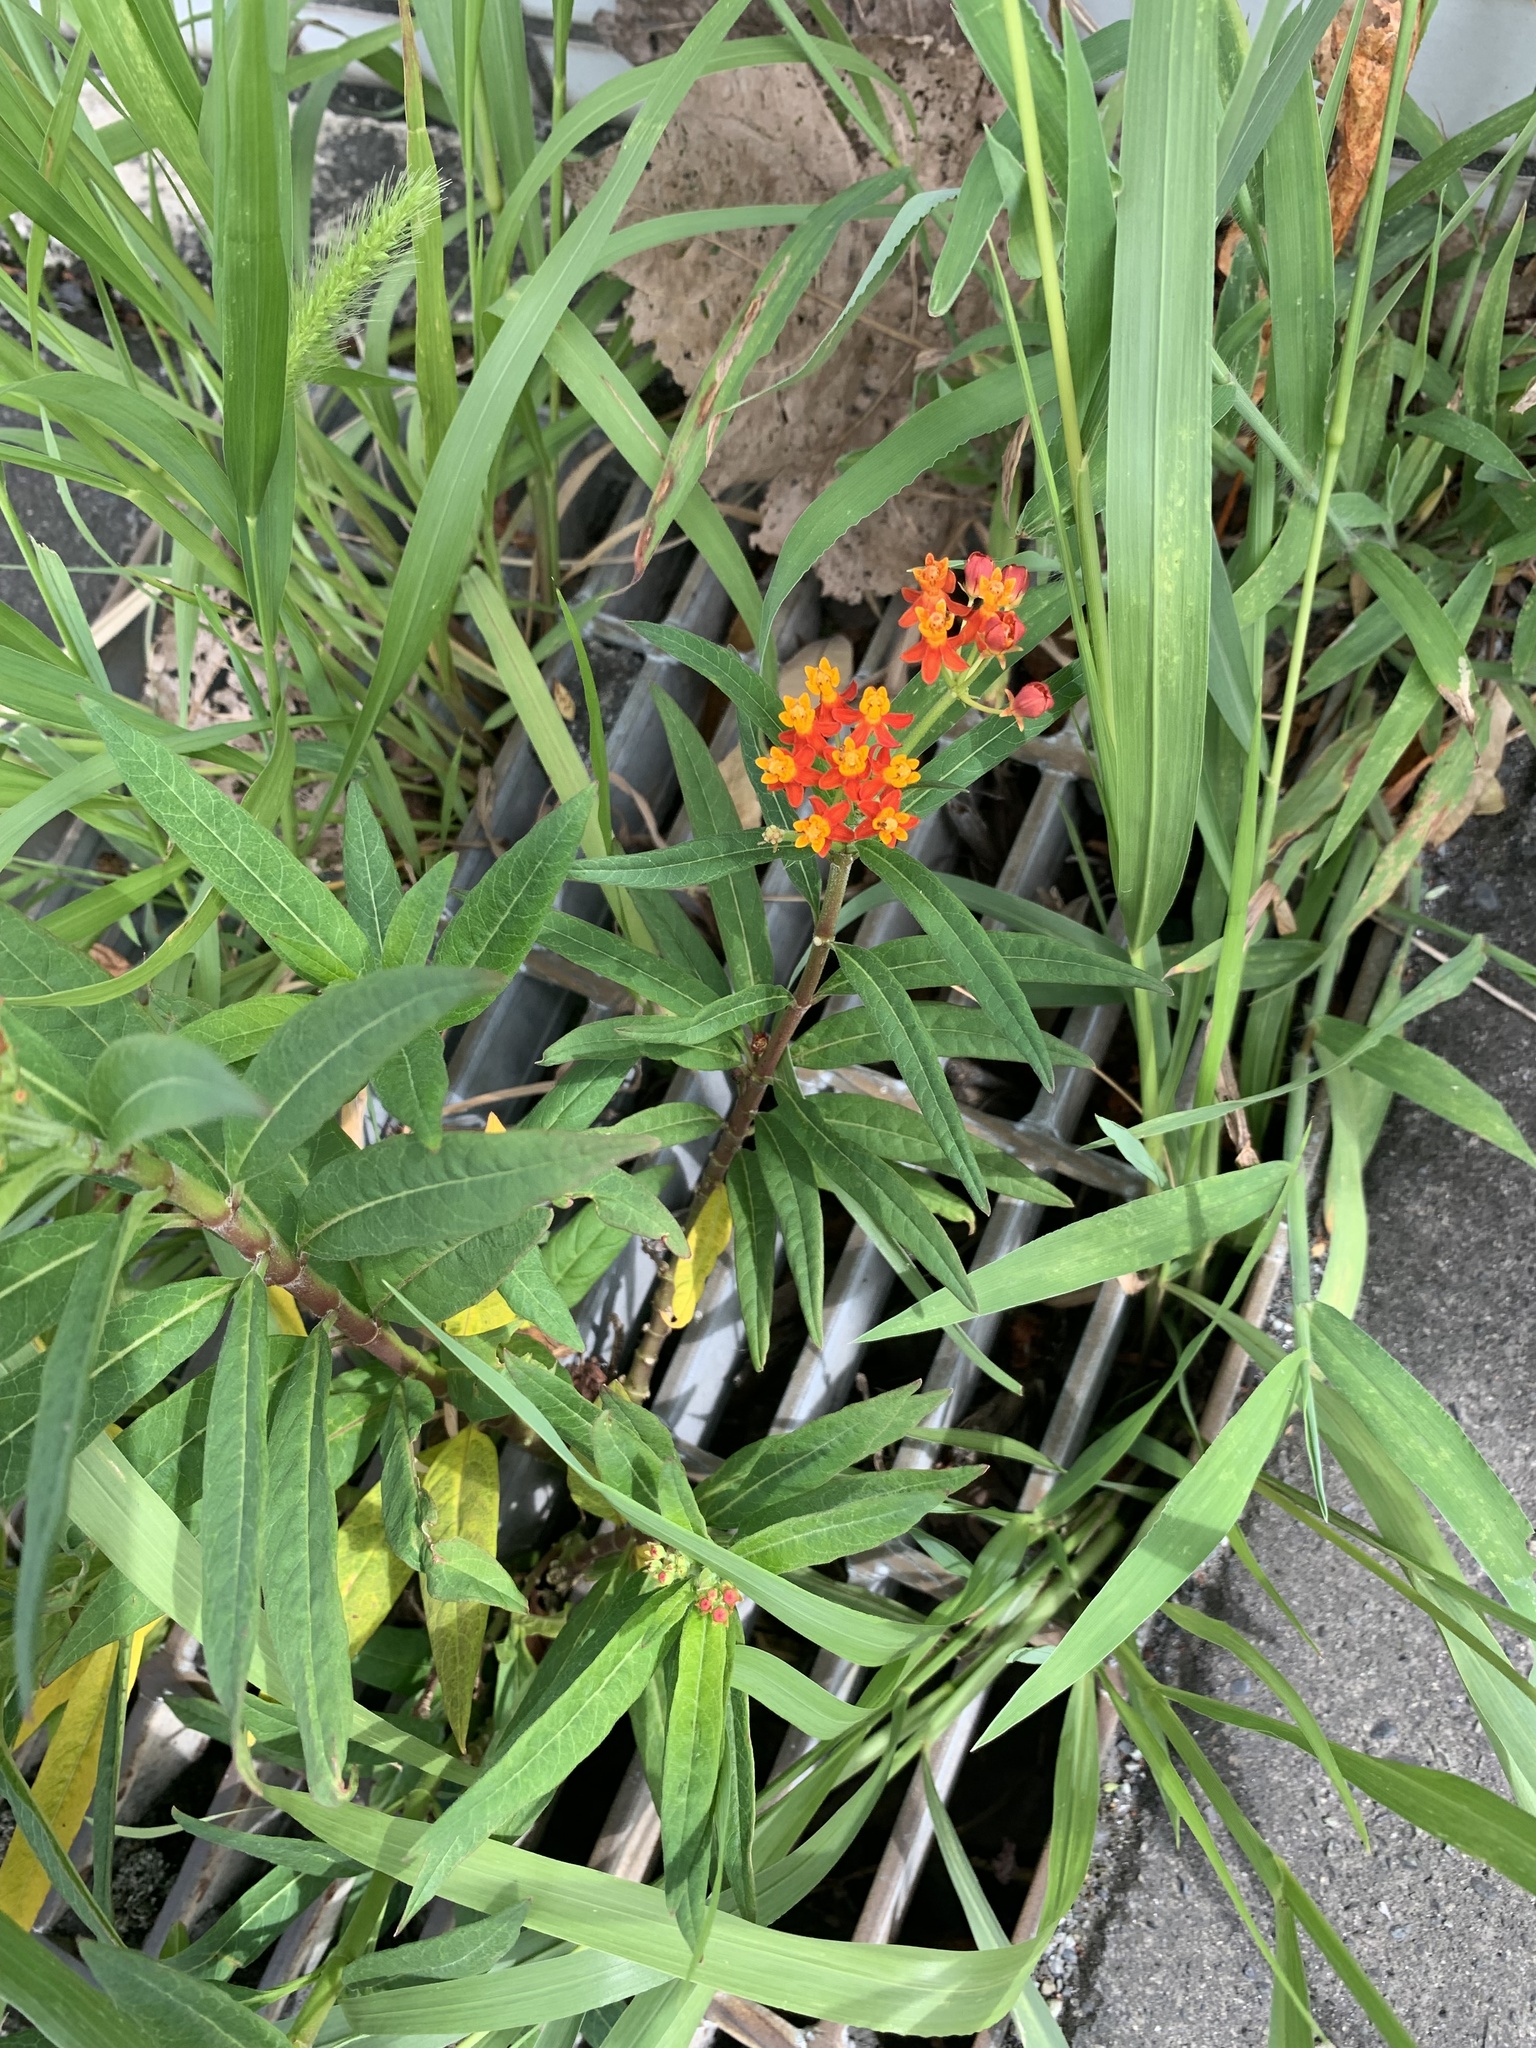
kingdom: Plantae
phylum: Tracheophyta
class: Magnoliopsida
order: Gentianales
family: Apocynaceae
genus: Asclepias
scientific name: Asclepias curassavica
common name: Bloodflower
